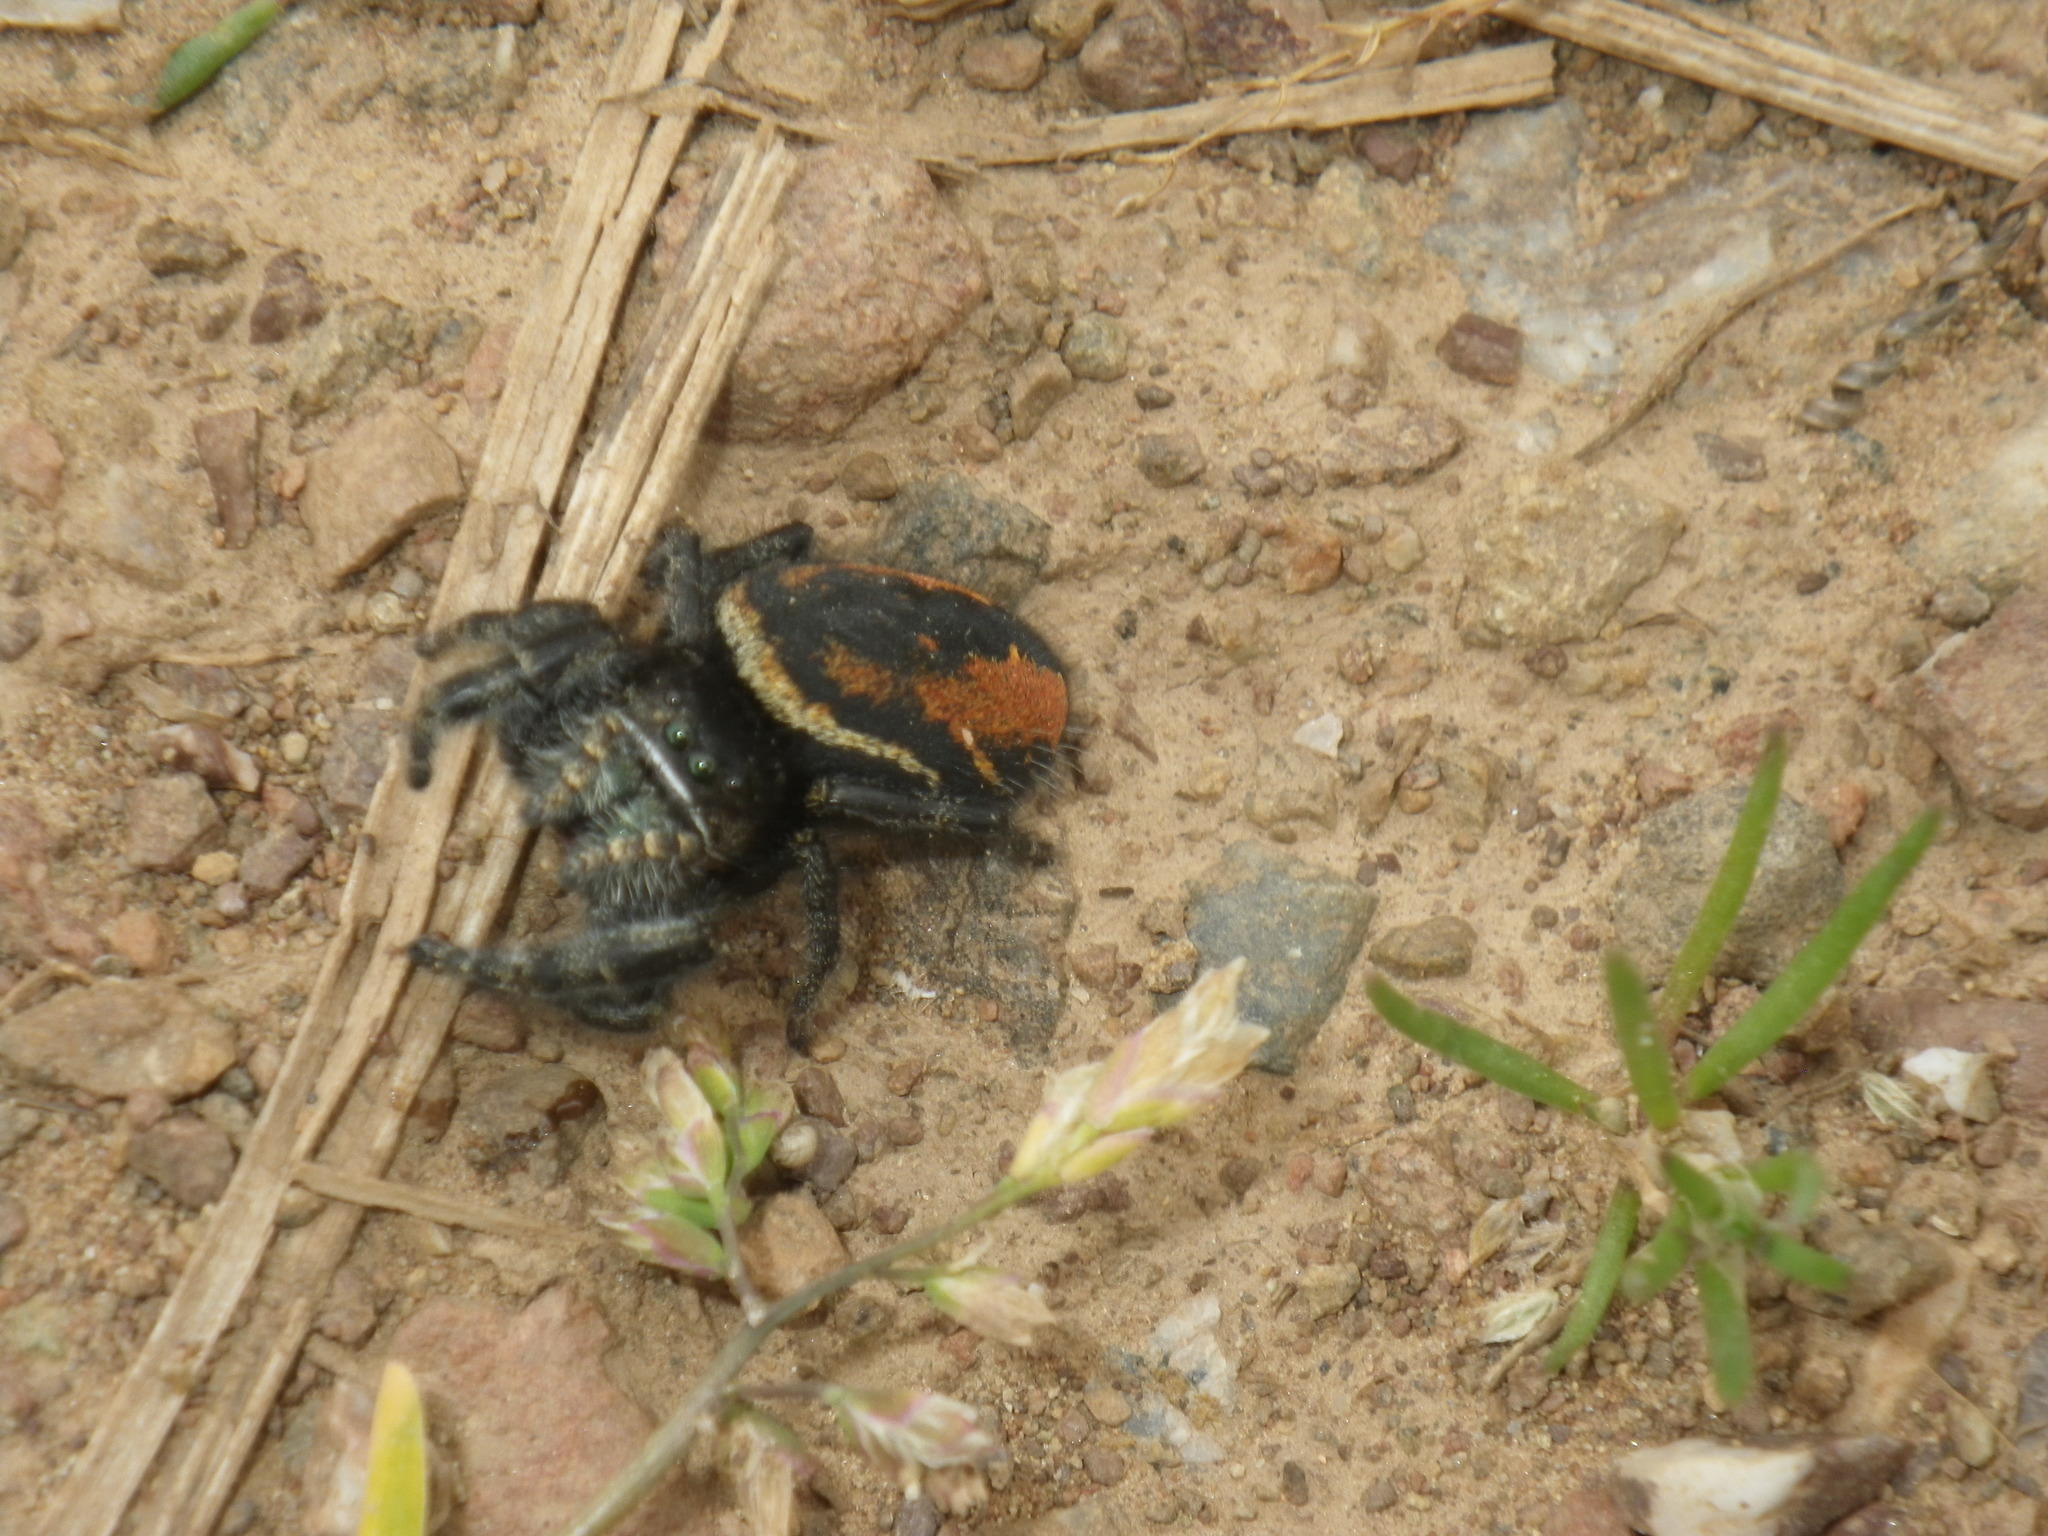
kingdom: Animalia
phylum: Arthropoda
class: Arachnida
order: Araneae
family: Salticidae
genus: Phidippus
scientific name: Phidippus johnsoni
